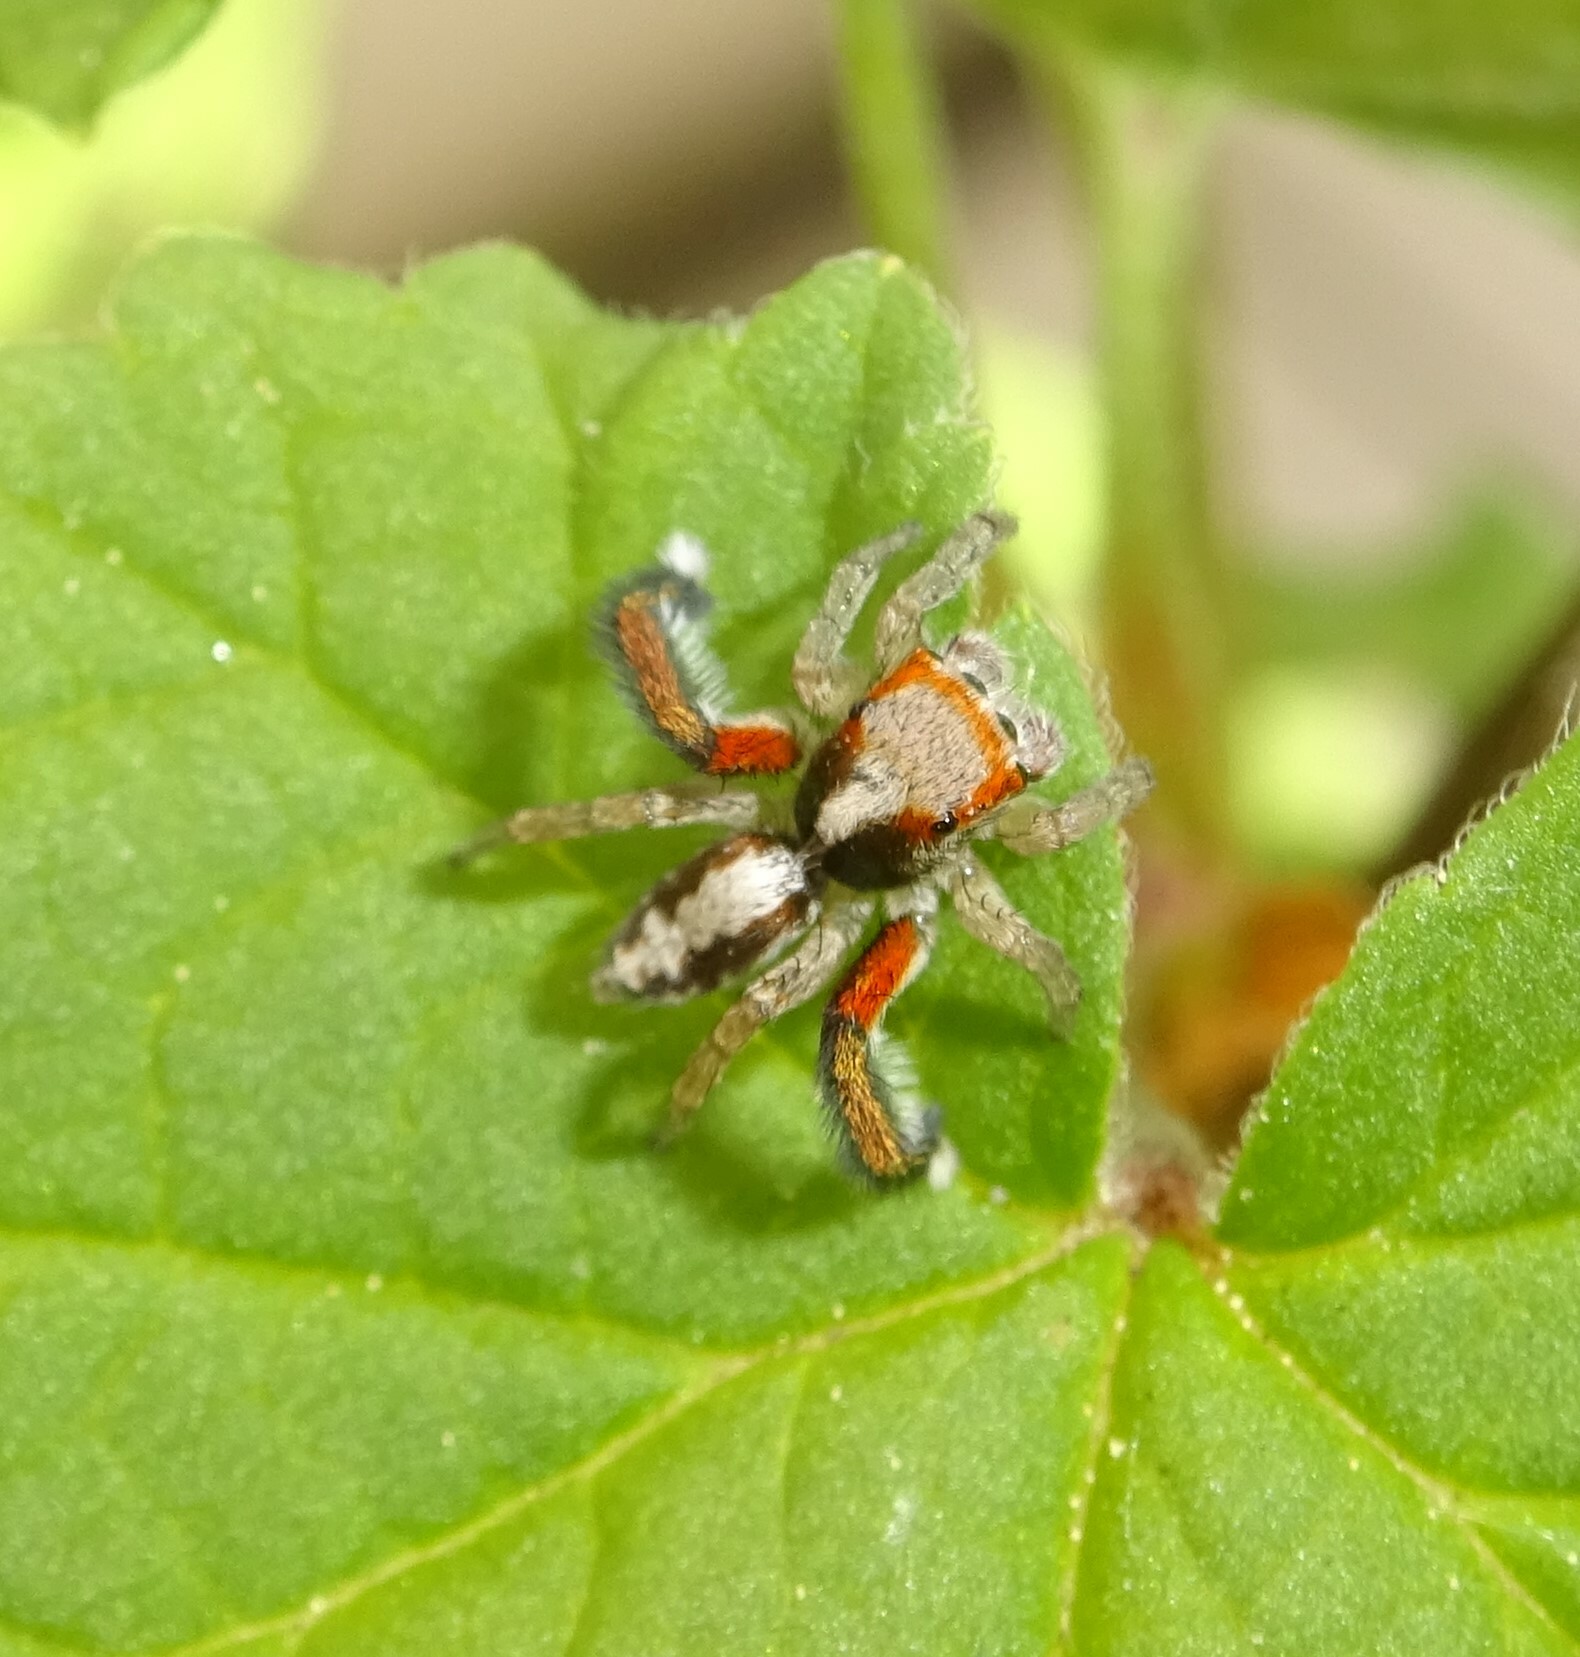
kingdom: Animalia
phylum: Arthropoda
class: Arachnida
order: Araneae
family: Salticidae
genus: Saitis
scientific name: Saitis barbipes
